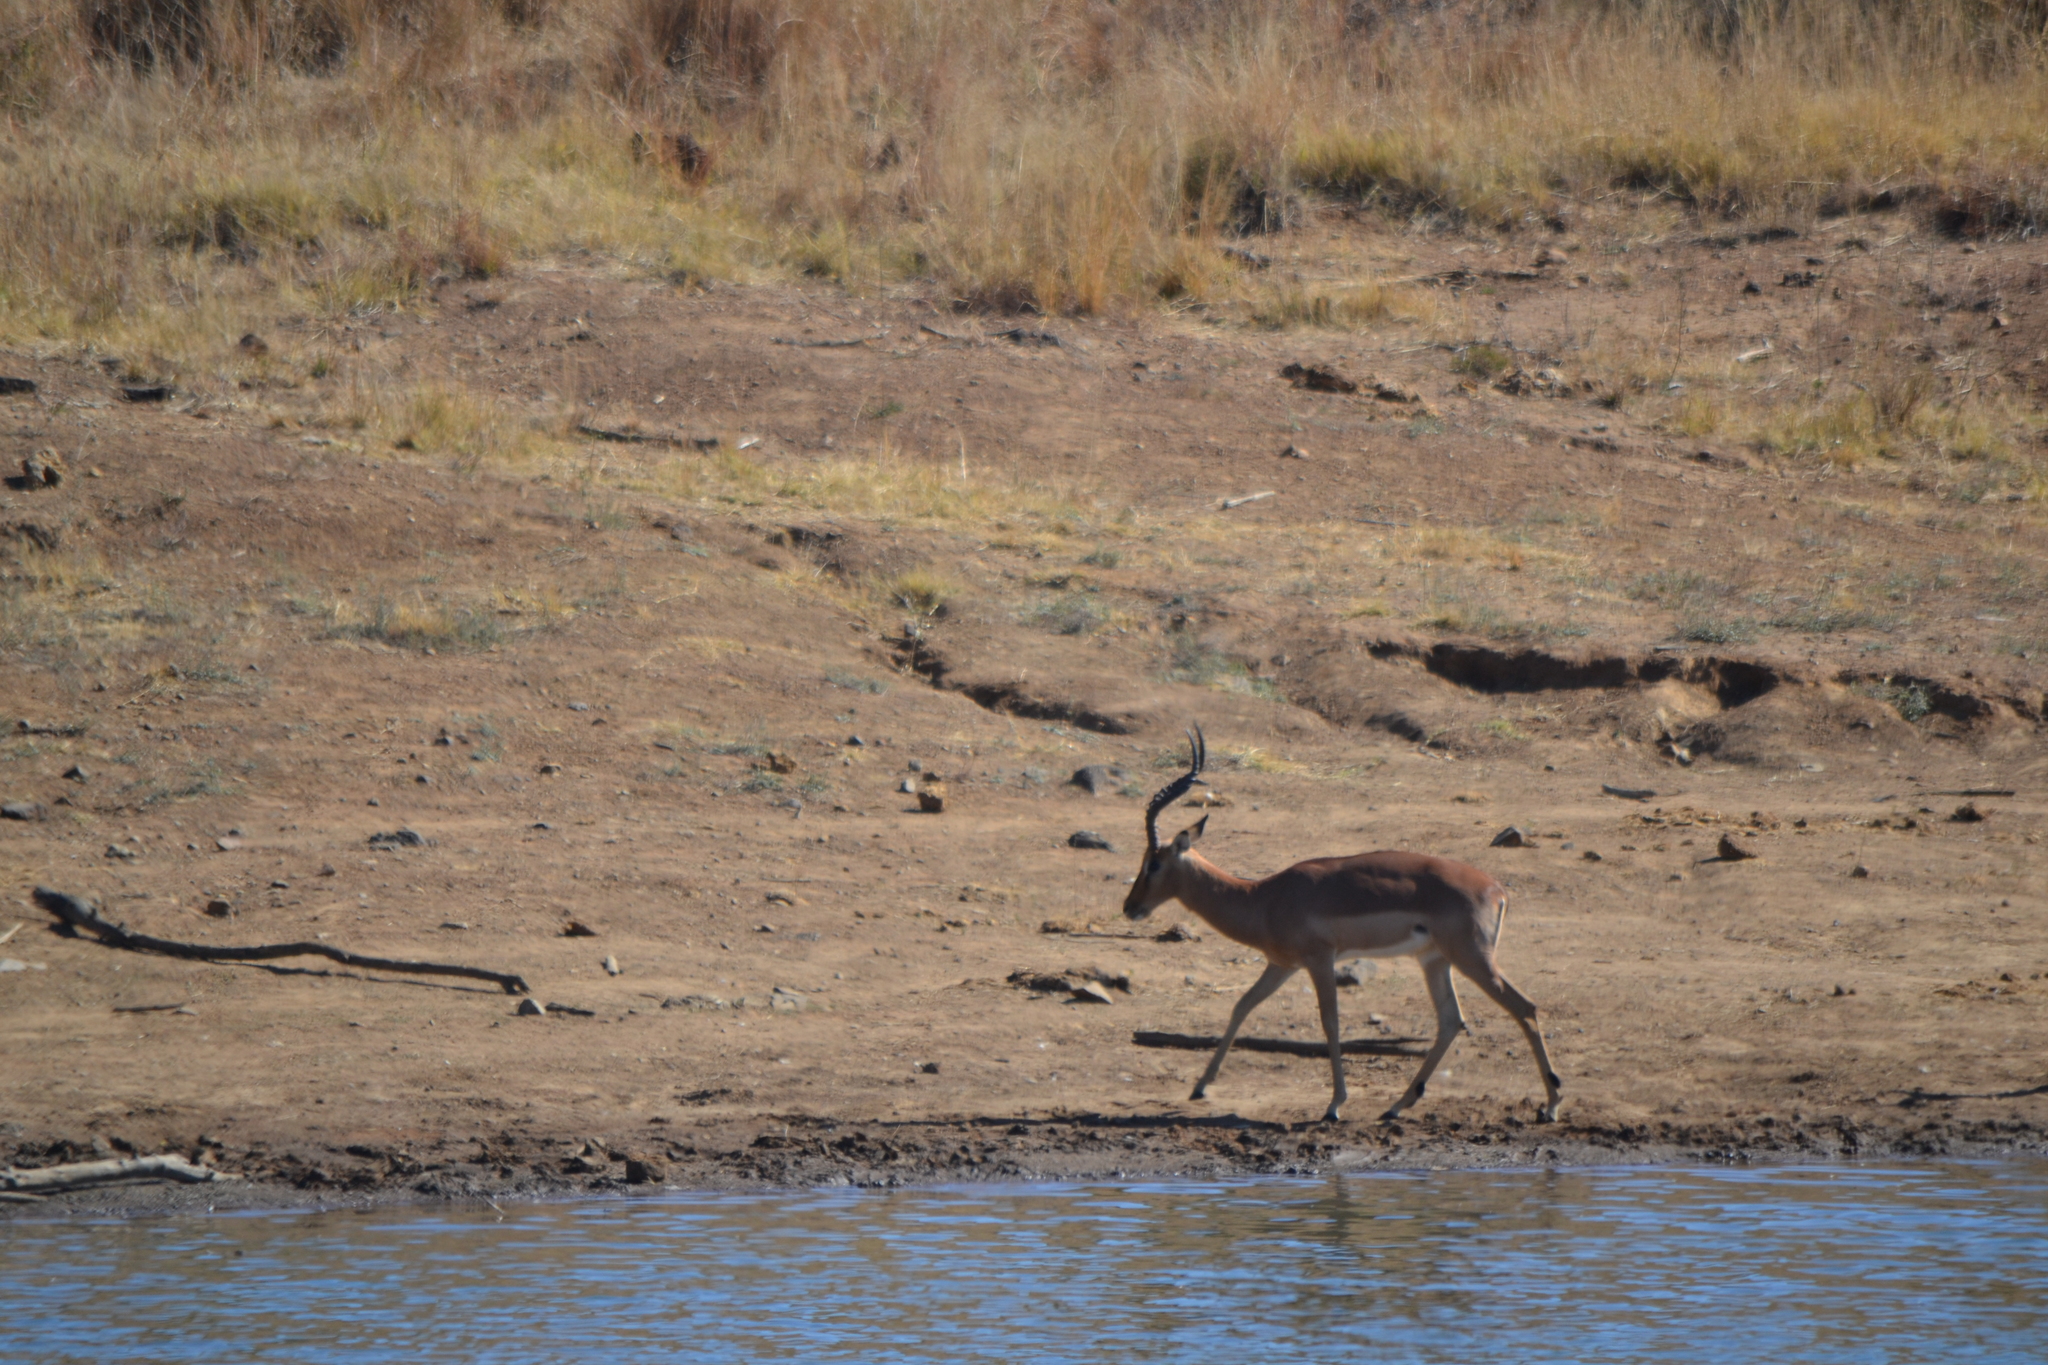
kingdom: Animalia
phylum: Chordata
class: Mammalia
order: Artiodactyla
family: Bovidae
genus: Aepyceros
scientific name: Aepyceros melampus
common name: Impala
